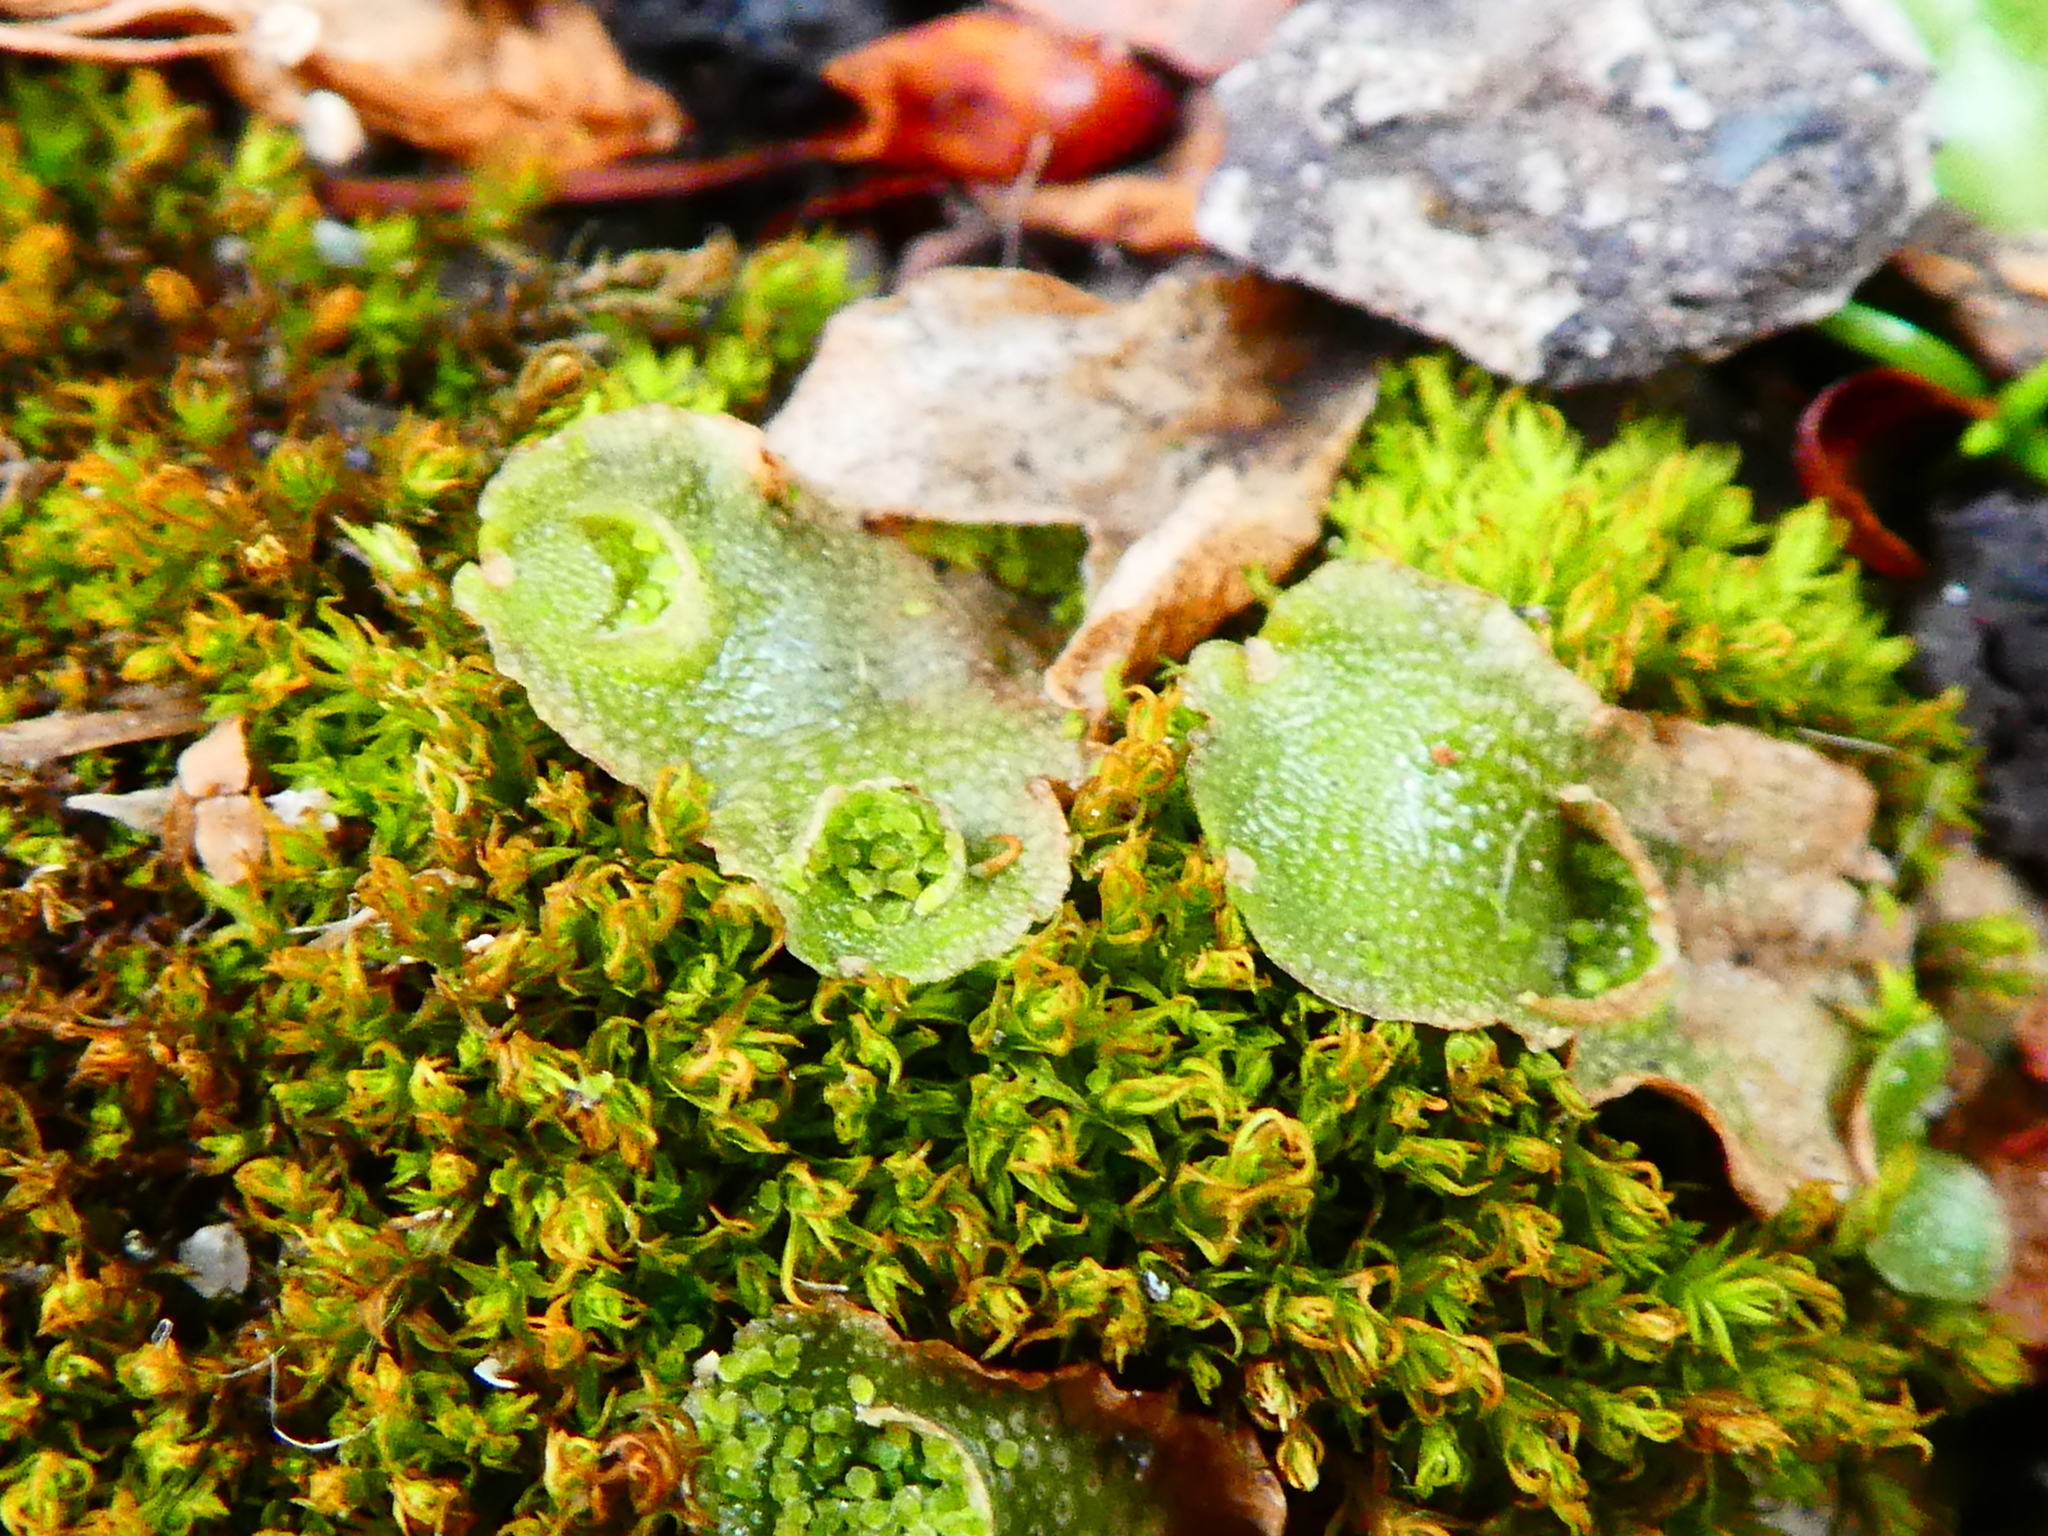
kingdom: Plantae
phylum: Marchantiophyta
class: Marchantiopsida
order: Lunulariales
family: Lunulariaceae
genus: Lunularia
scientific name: Lunularia cruciata
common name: Crescent-cup liverwort
